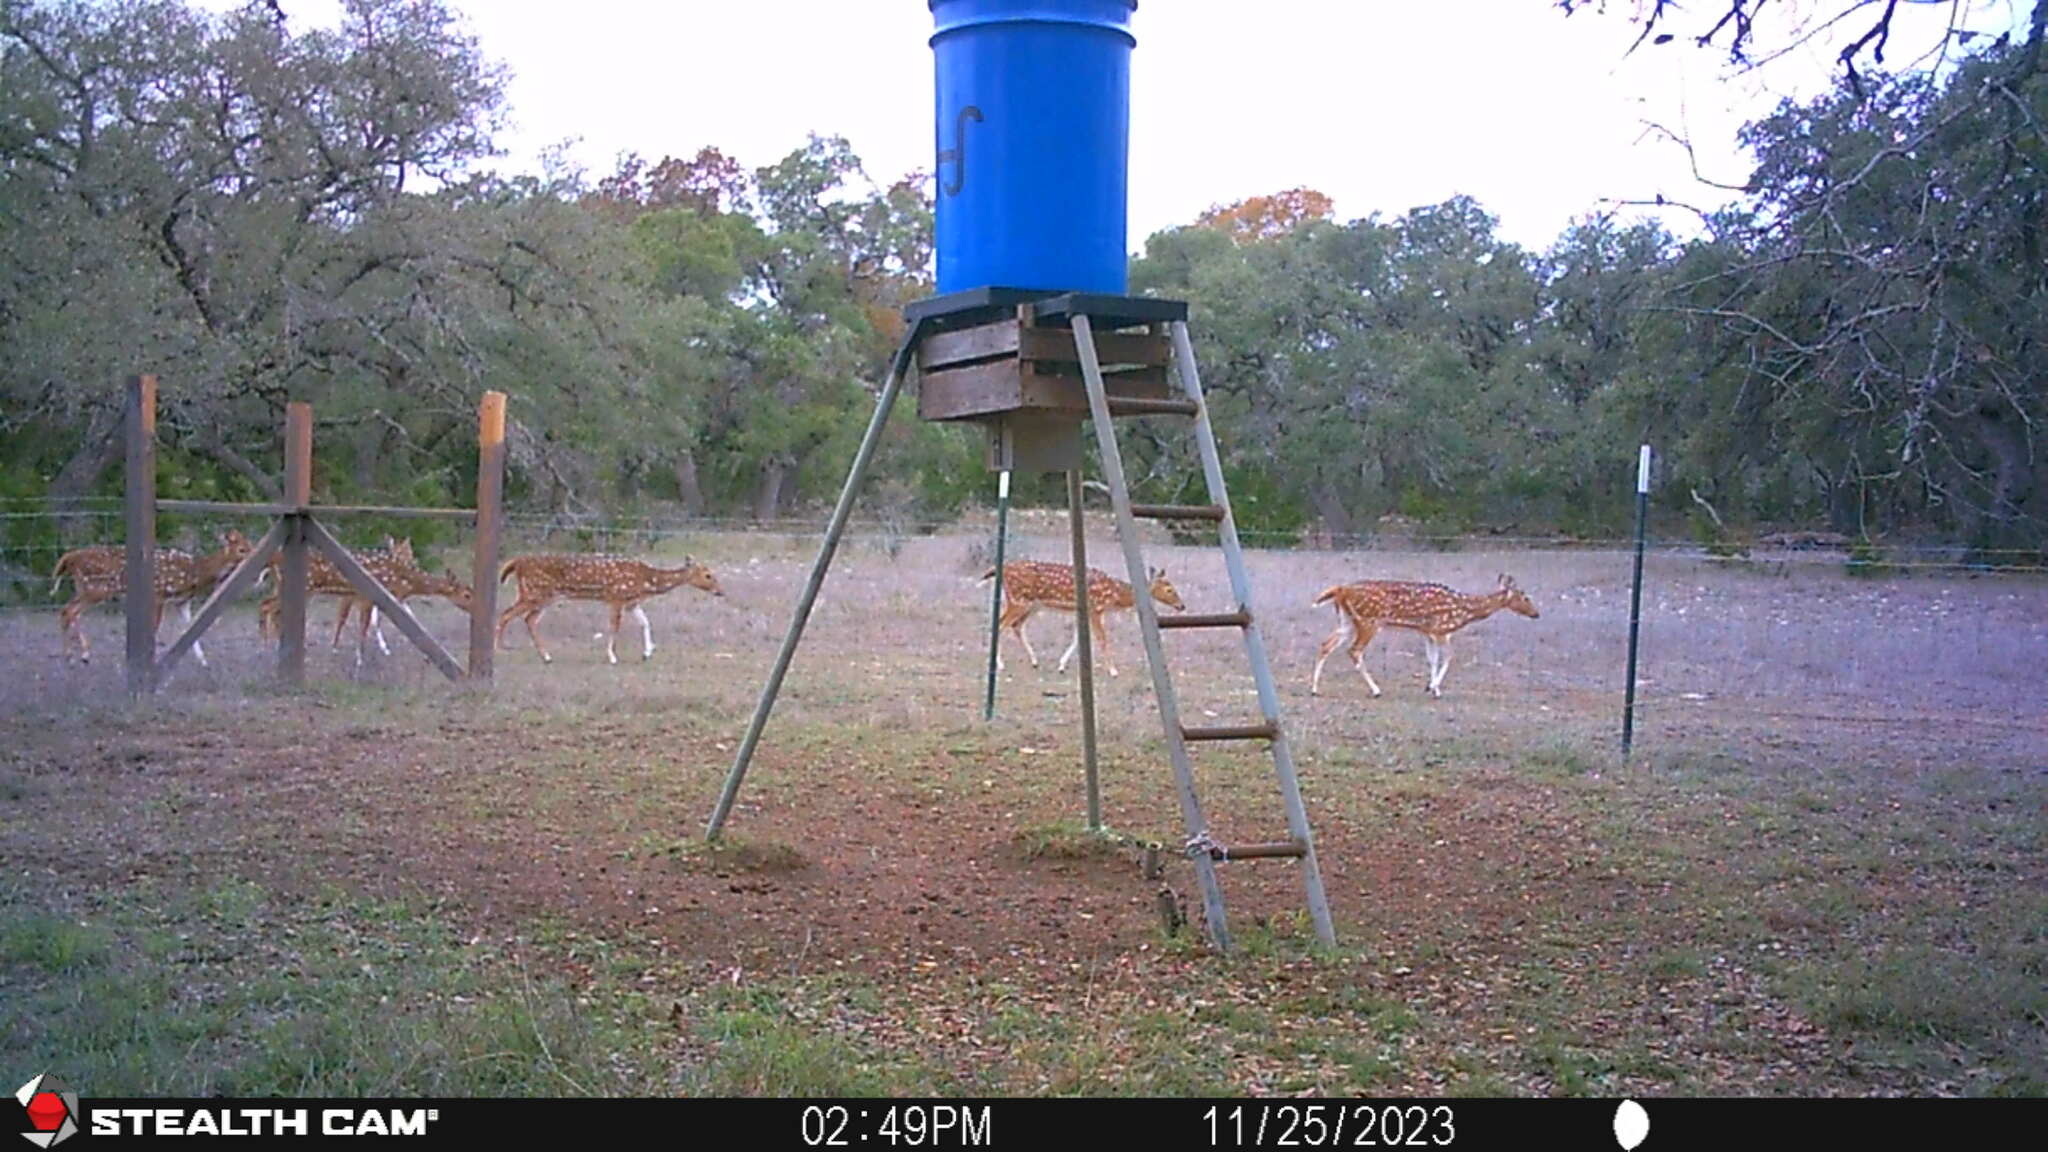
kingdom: Animalia
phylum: Chordata
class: Mammalia
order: Artiodactyla
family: Cervidae
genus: Axis
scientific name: Axis axis
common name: Chital
